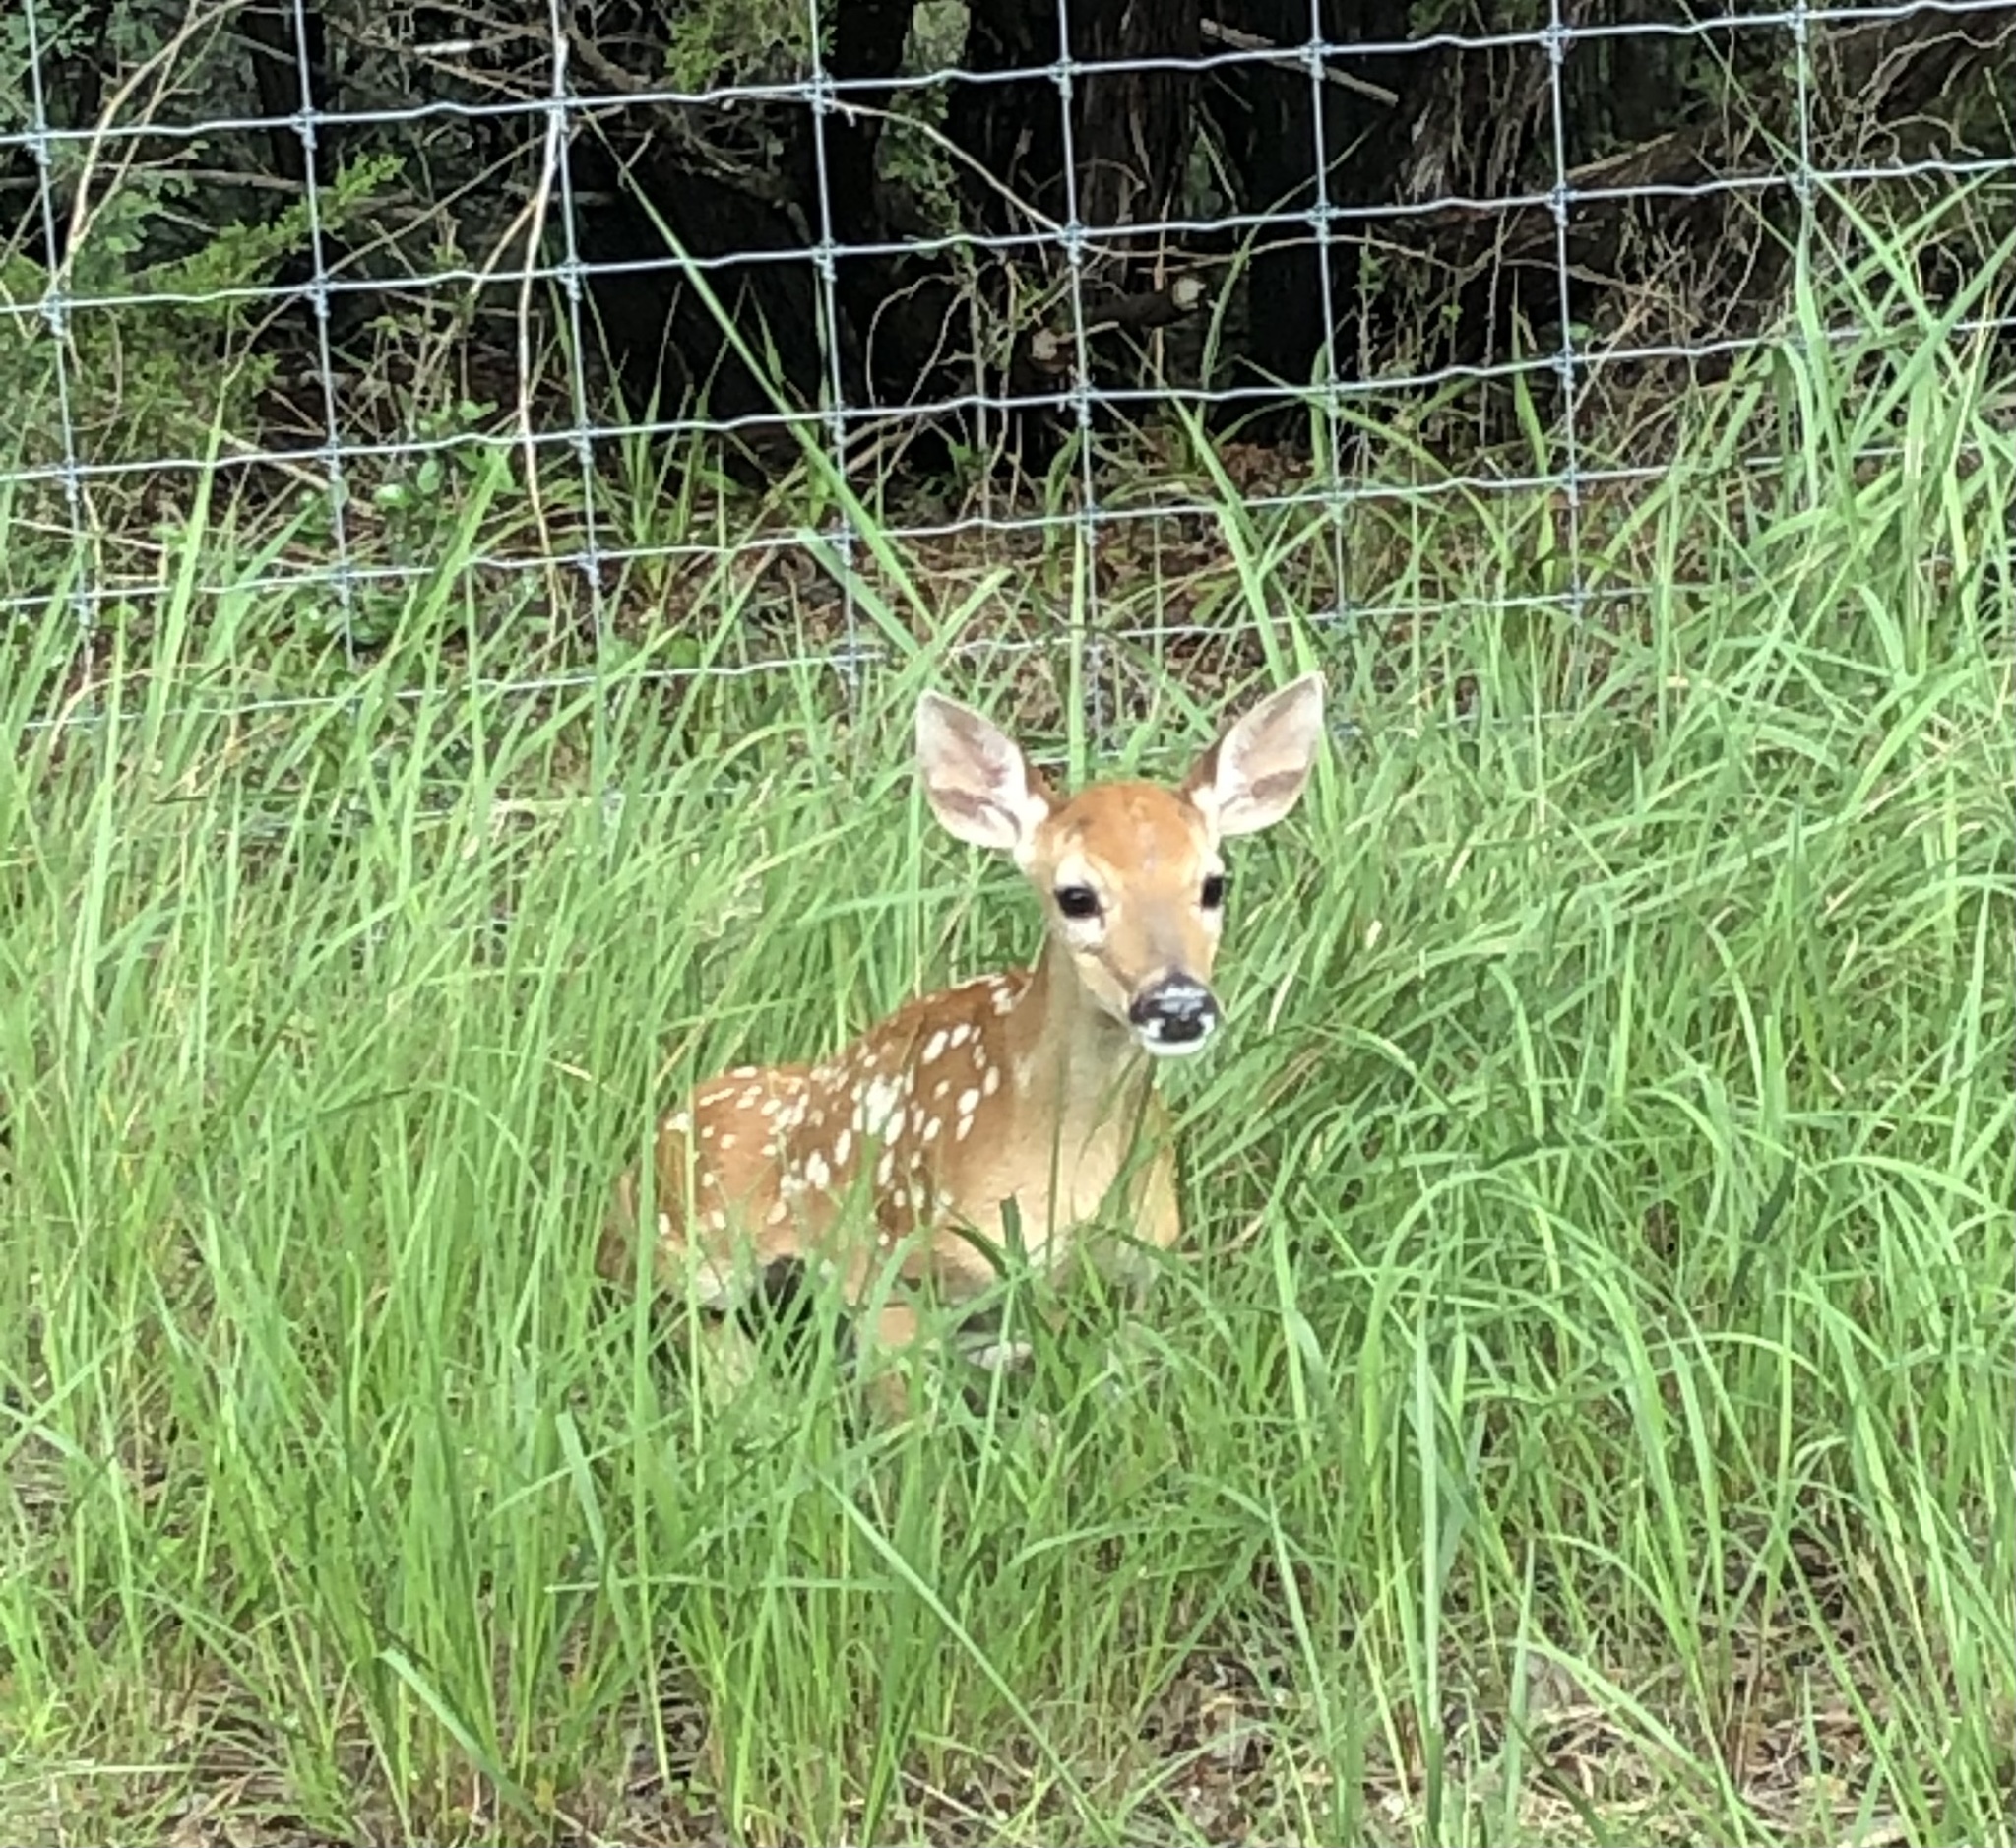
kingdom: Animalia
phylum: Chordata
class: Mammalia
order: Artiodactyla
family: Cervidae
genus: Odocoileus
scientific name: Odocoileus virginianus
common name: White-tailed deer
